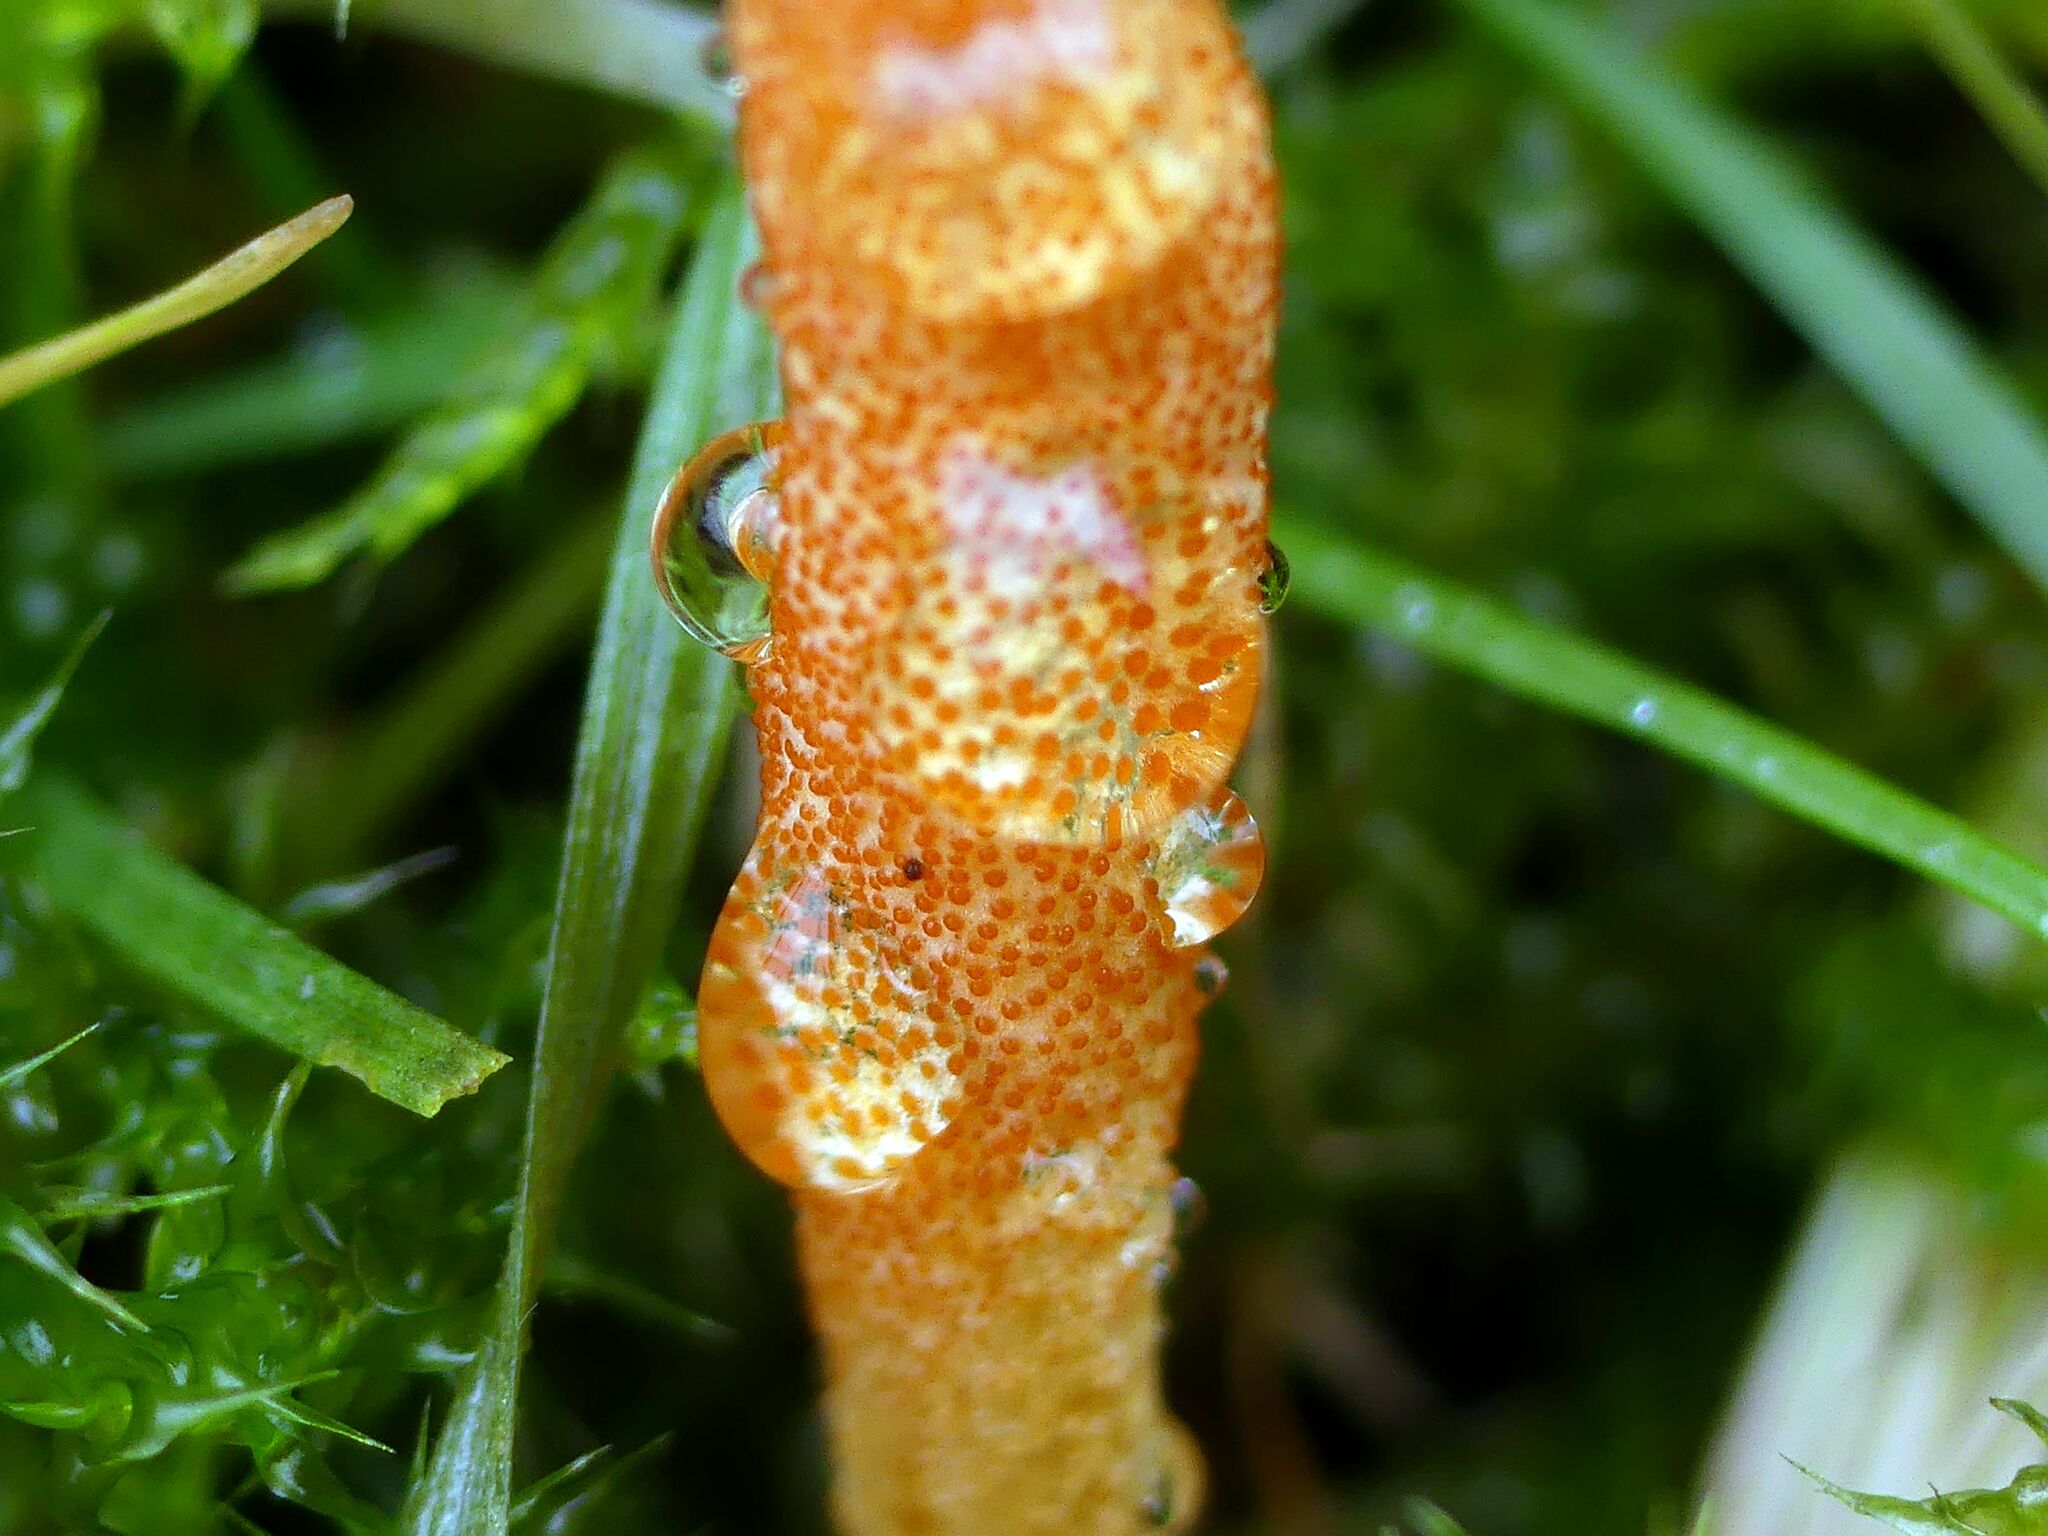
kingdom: Fungi
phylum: Ascomycota
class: Sordariomycetes
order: Hypocreales
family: Cordycipitaceae
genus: Cordyceps
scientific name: Cordyceps militaris
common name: Scarlet caterpillar fungus
